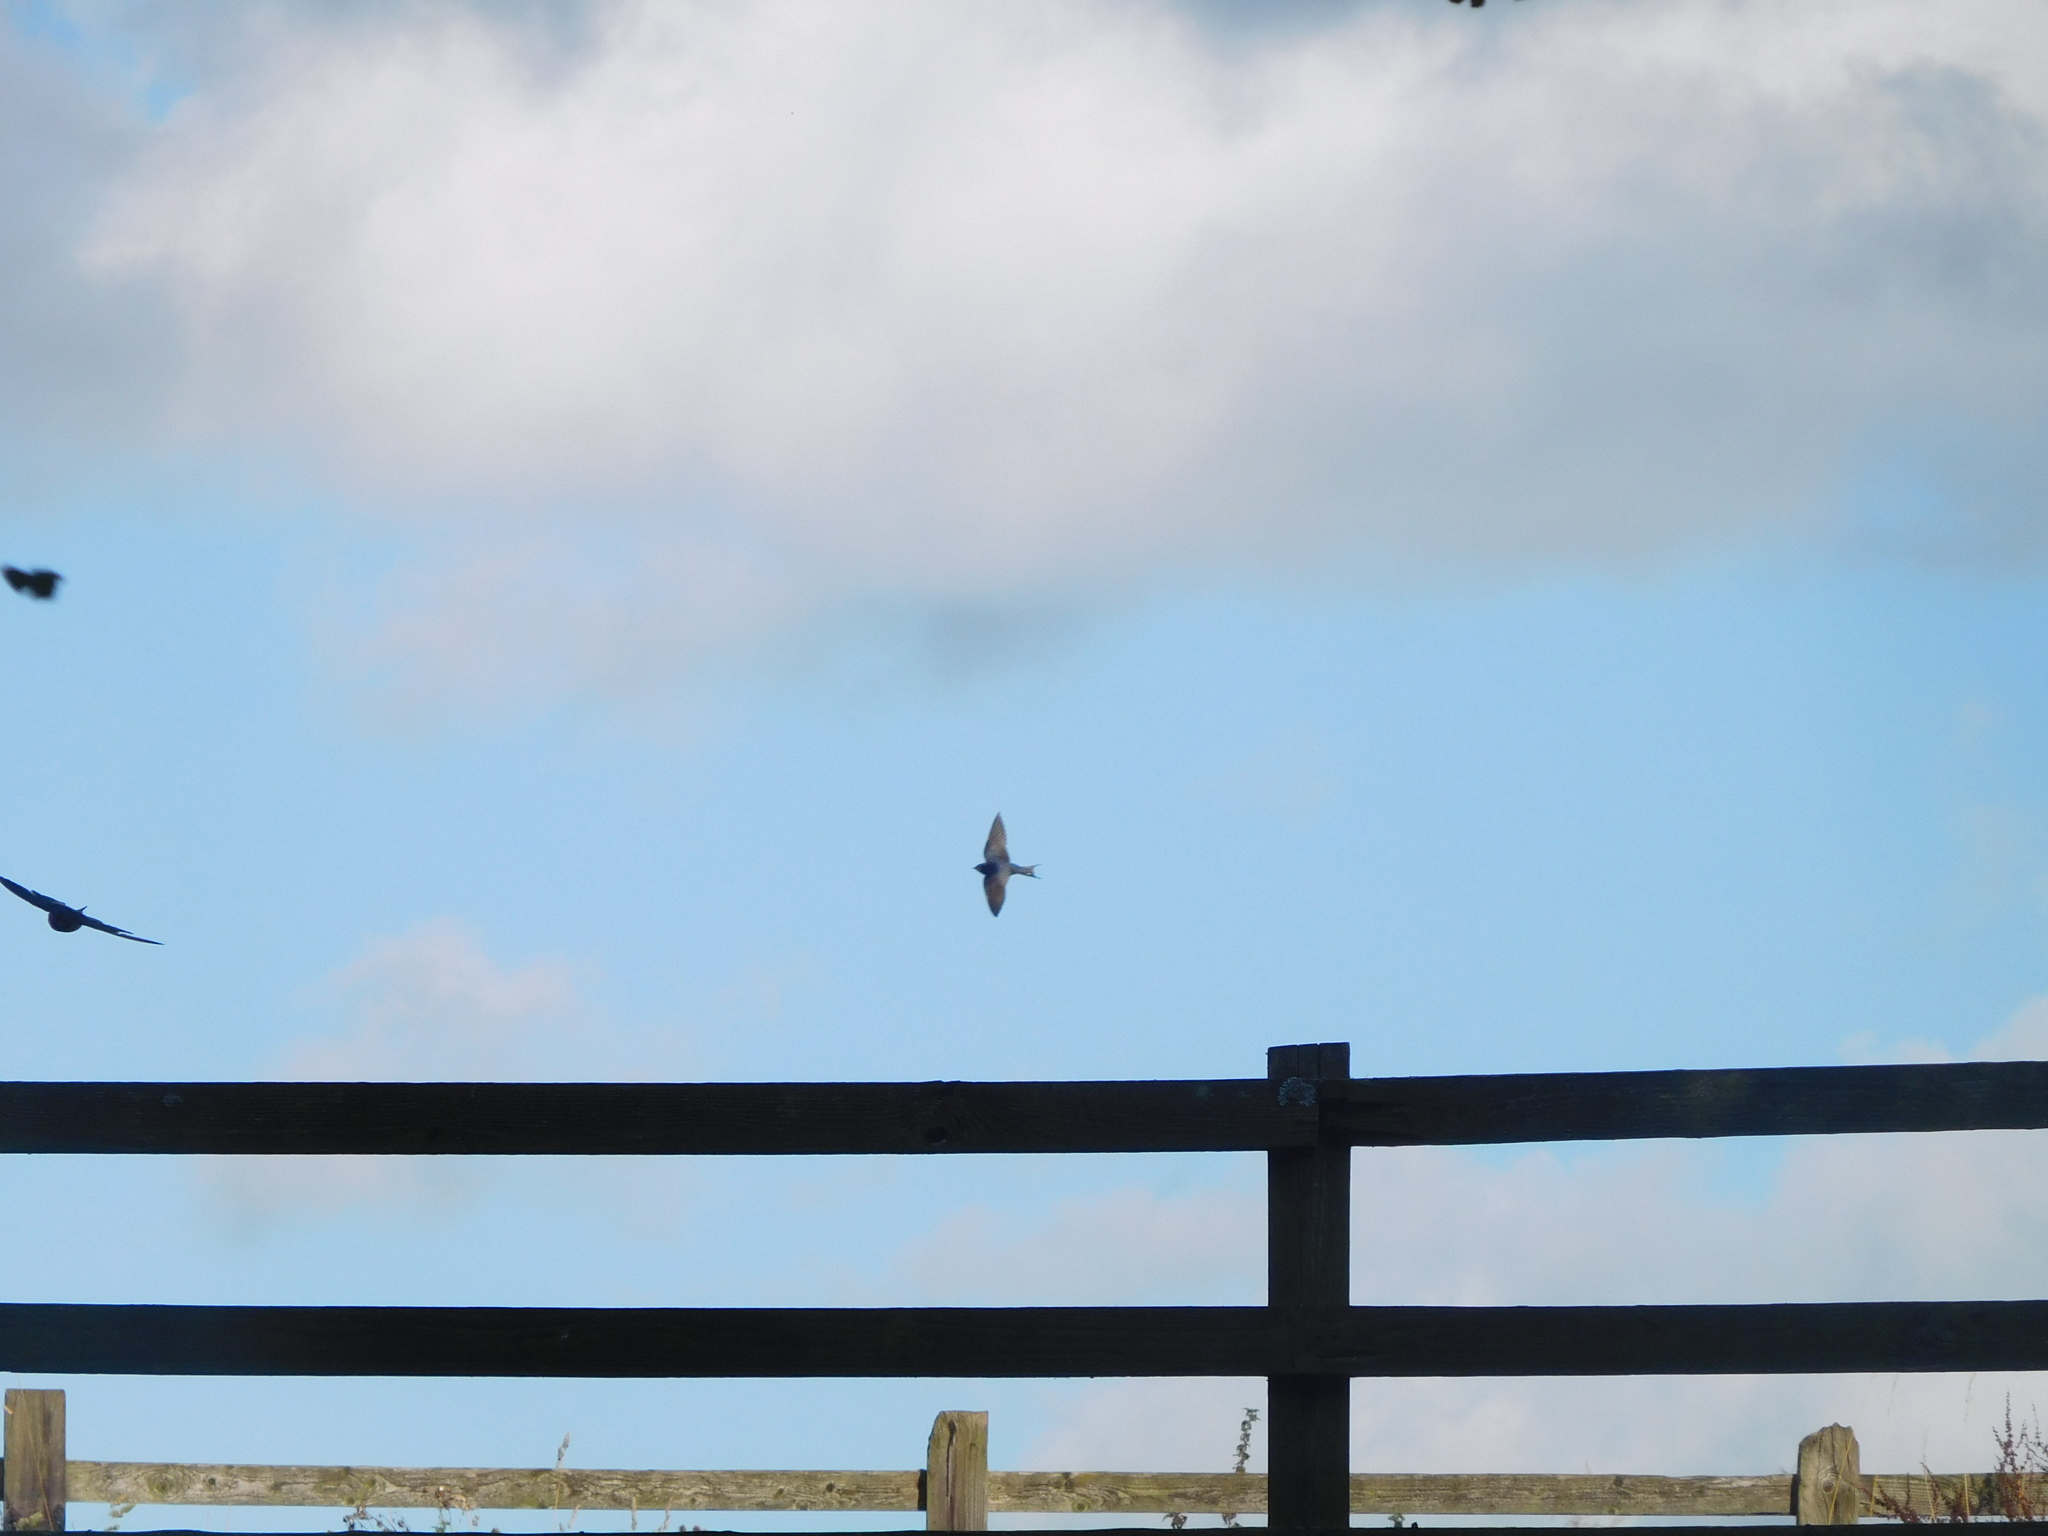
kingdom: Animalia
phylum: Chordata
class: Aves
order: Passeriformes
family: Hirundinidae
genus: Hirundo
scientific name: Hirundo rustica
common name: Barn swallow
